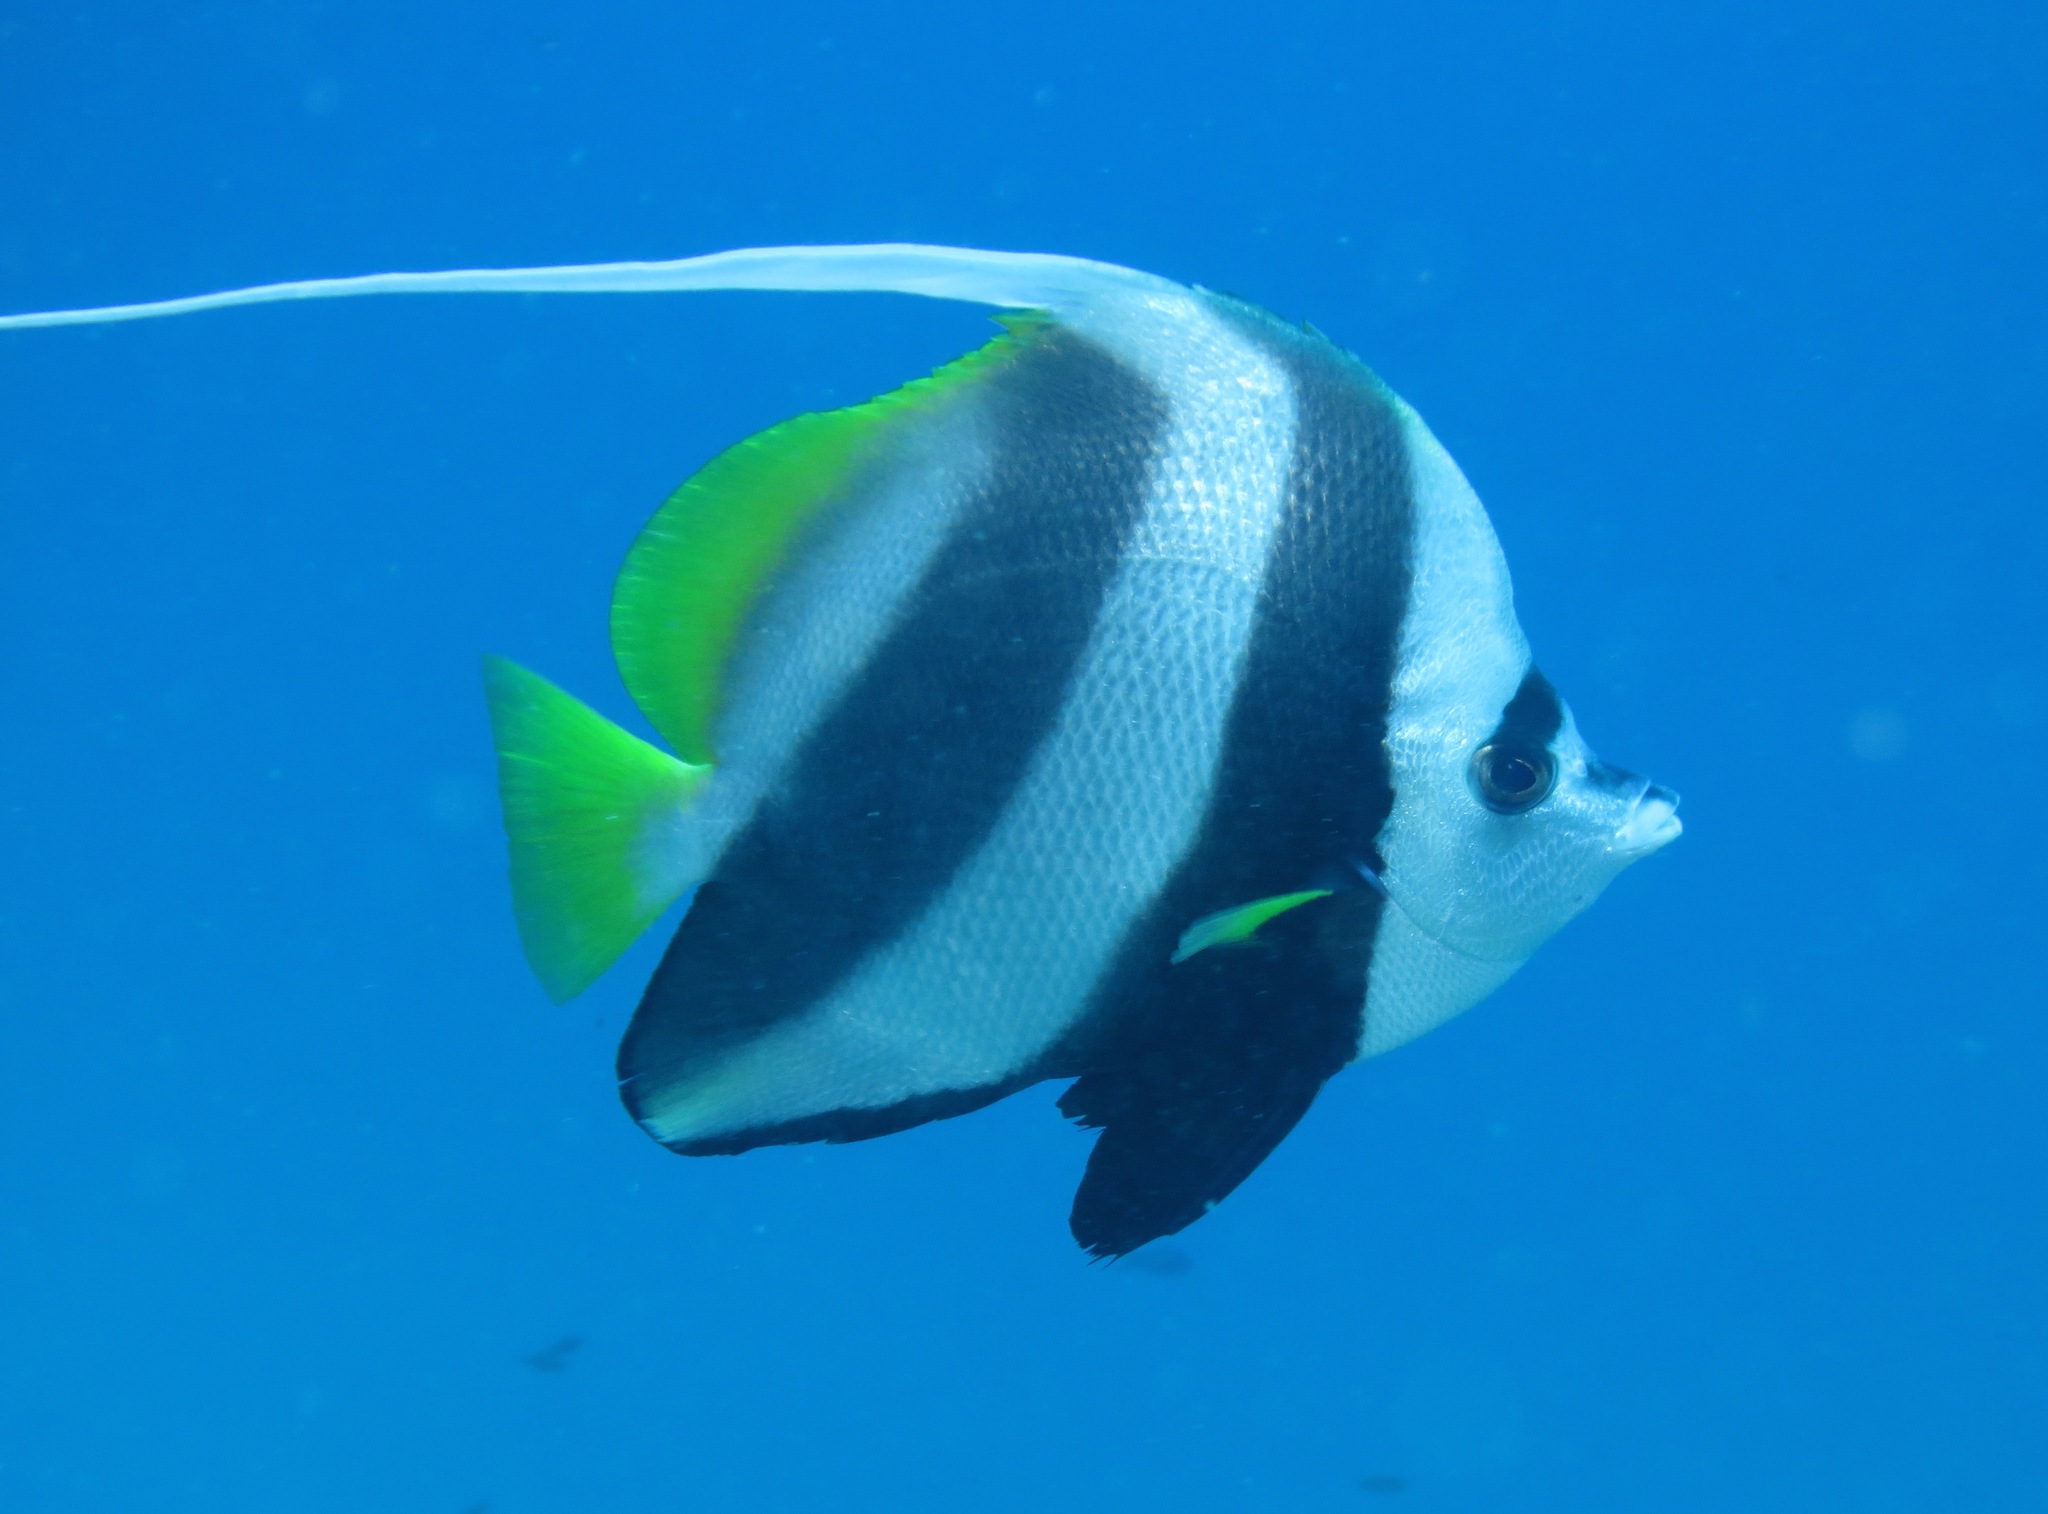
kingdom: Animalia
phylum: Chordata
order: Perciformes
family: Chaetodontidae
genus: Heniochus
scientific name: Heniochus acuminatus
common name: Pennant coralfish
